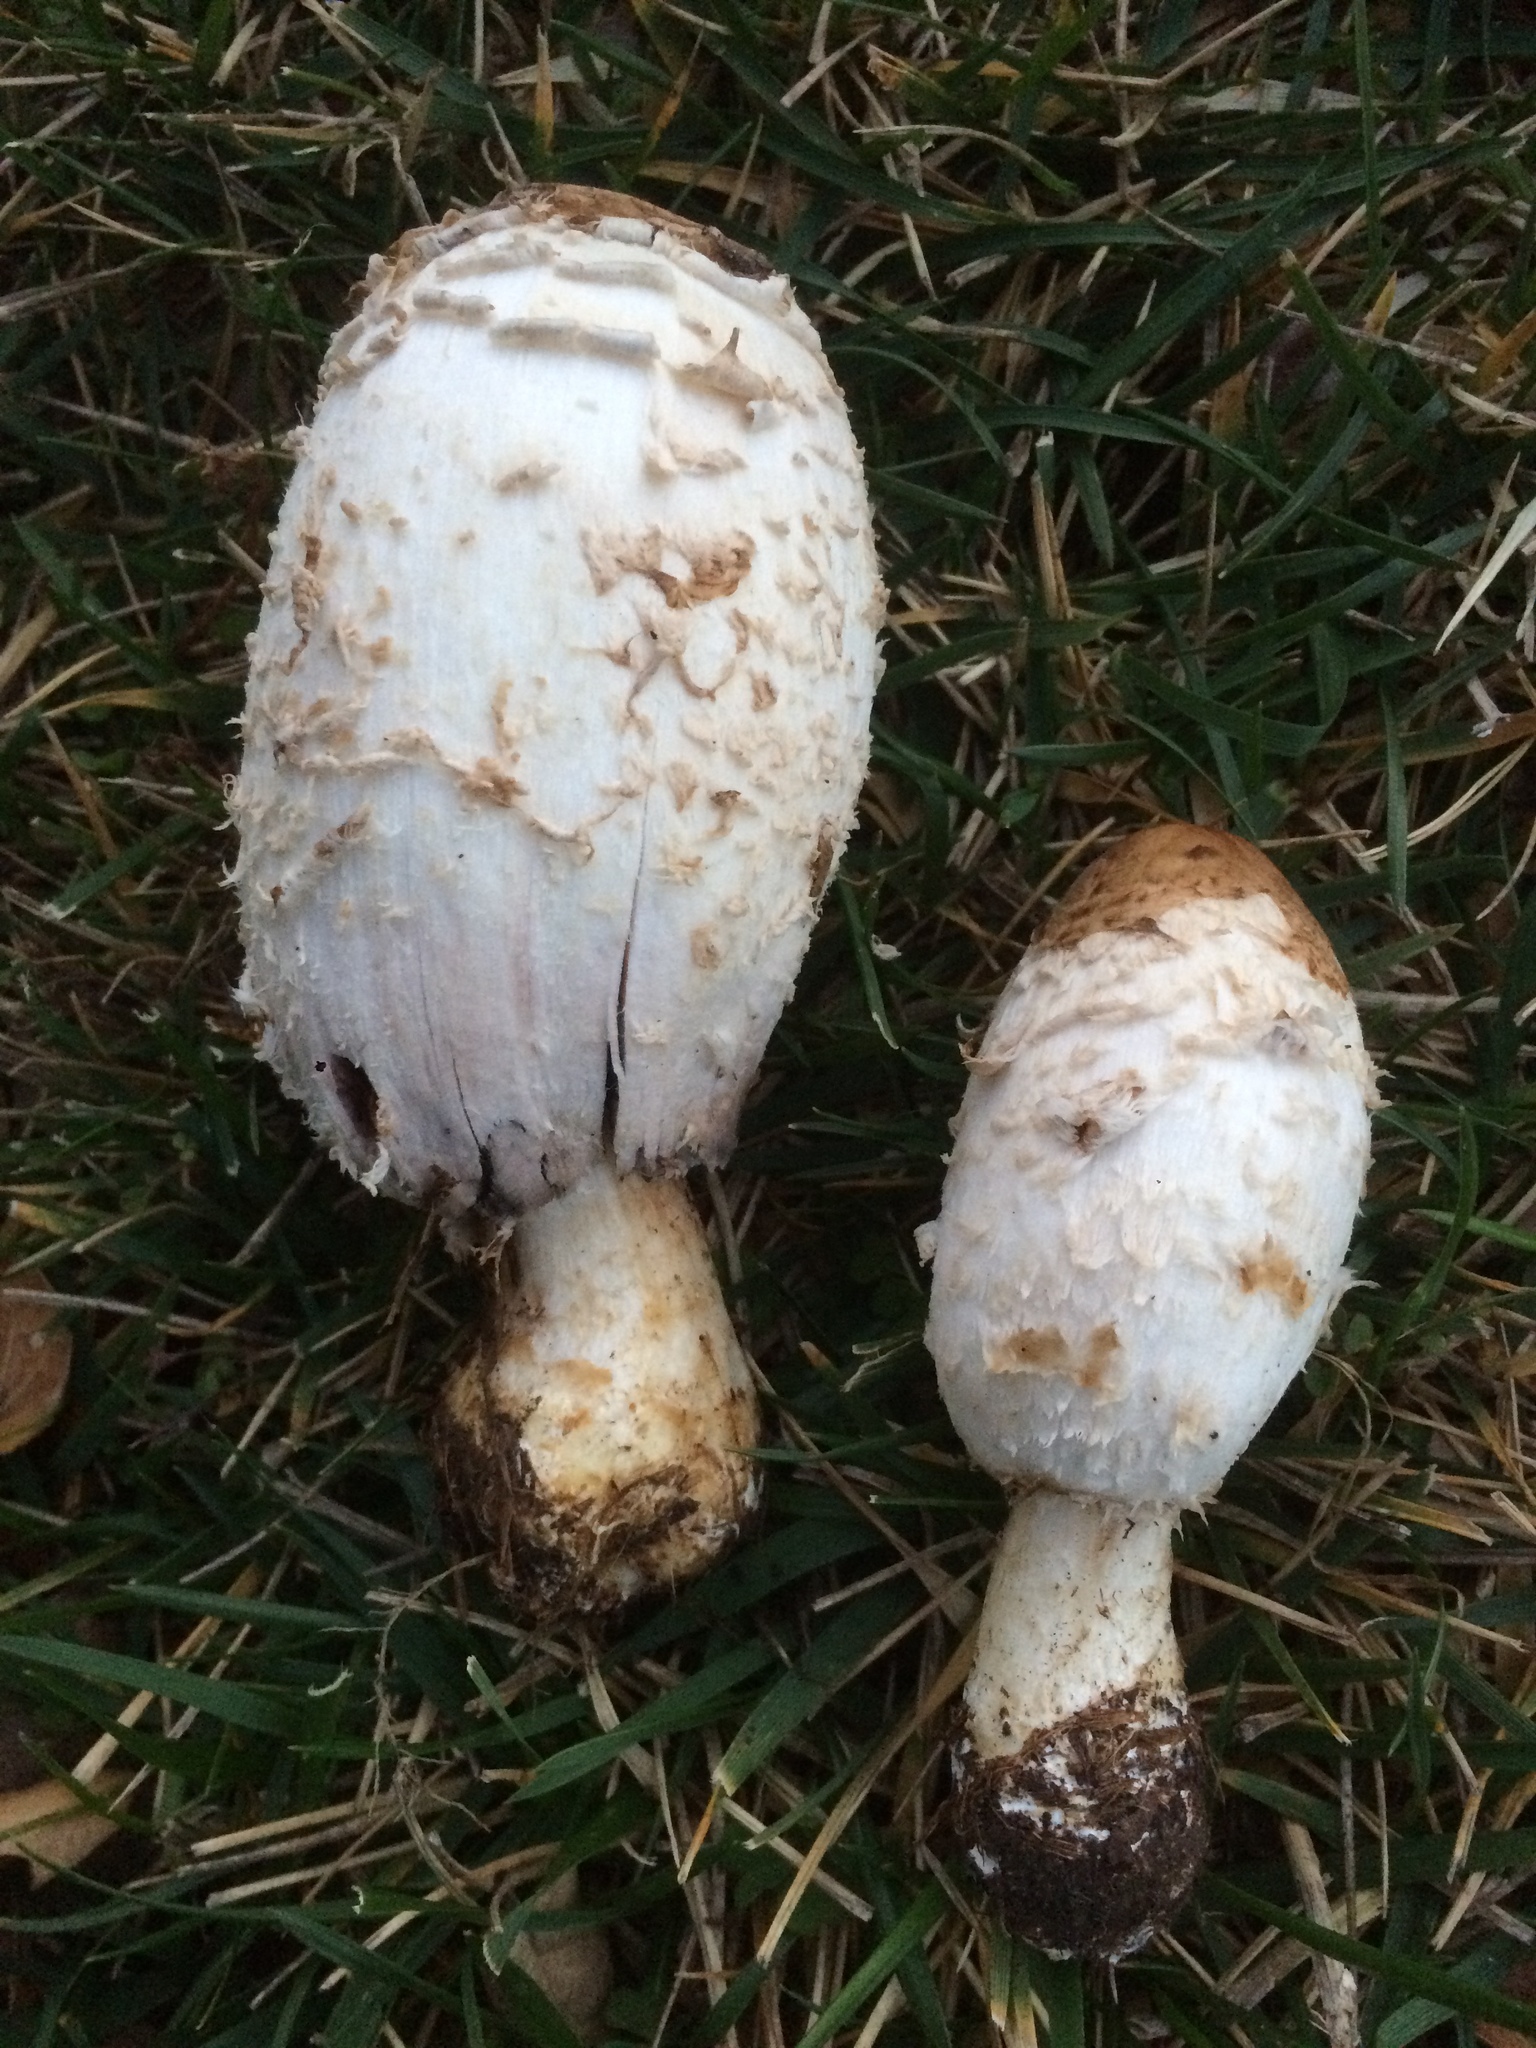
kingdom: Fungi
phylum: Basidiomycota
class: Agaricomycetes
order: Agaricales
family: Agaricaceae
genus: Coprinus
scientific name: Coprinus comatus
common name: Lawyer's wig
